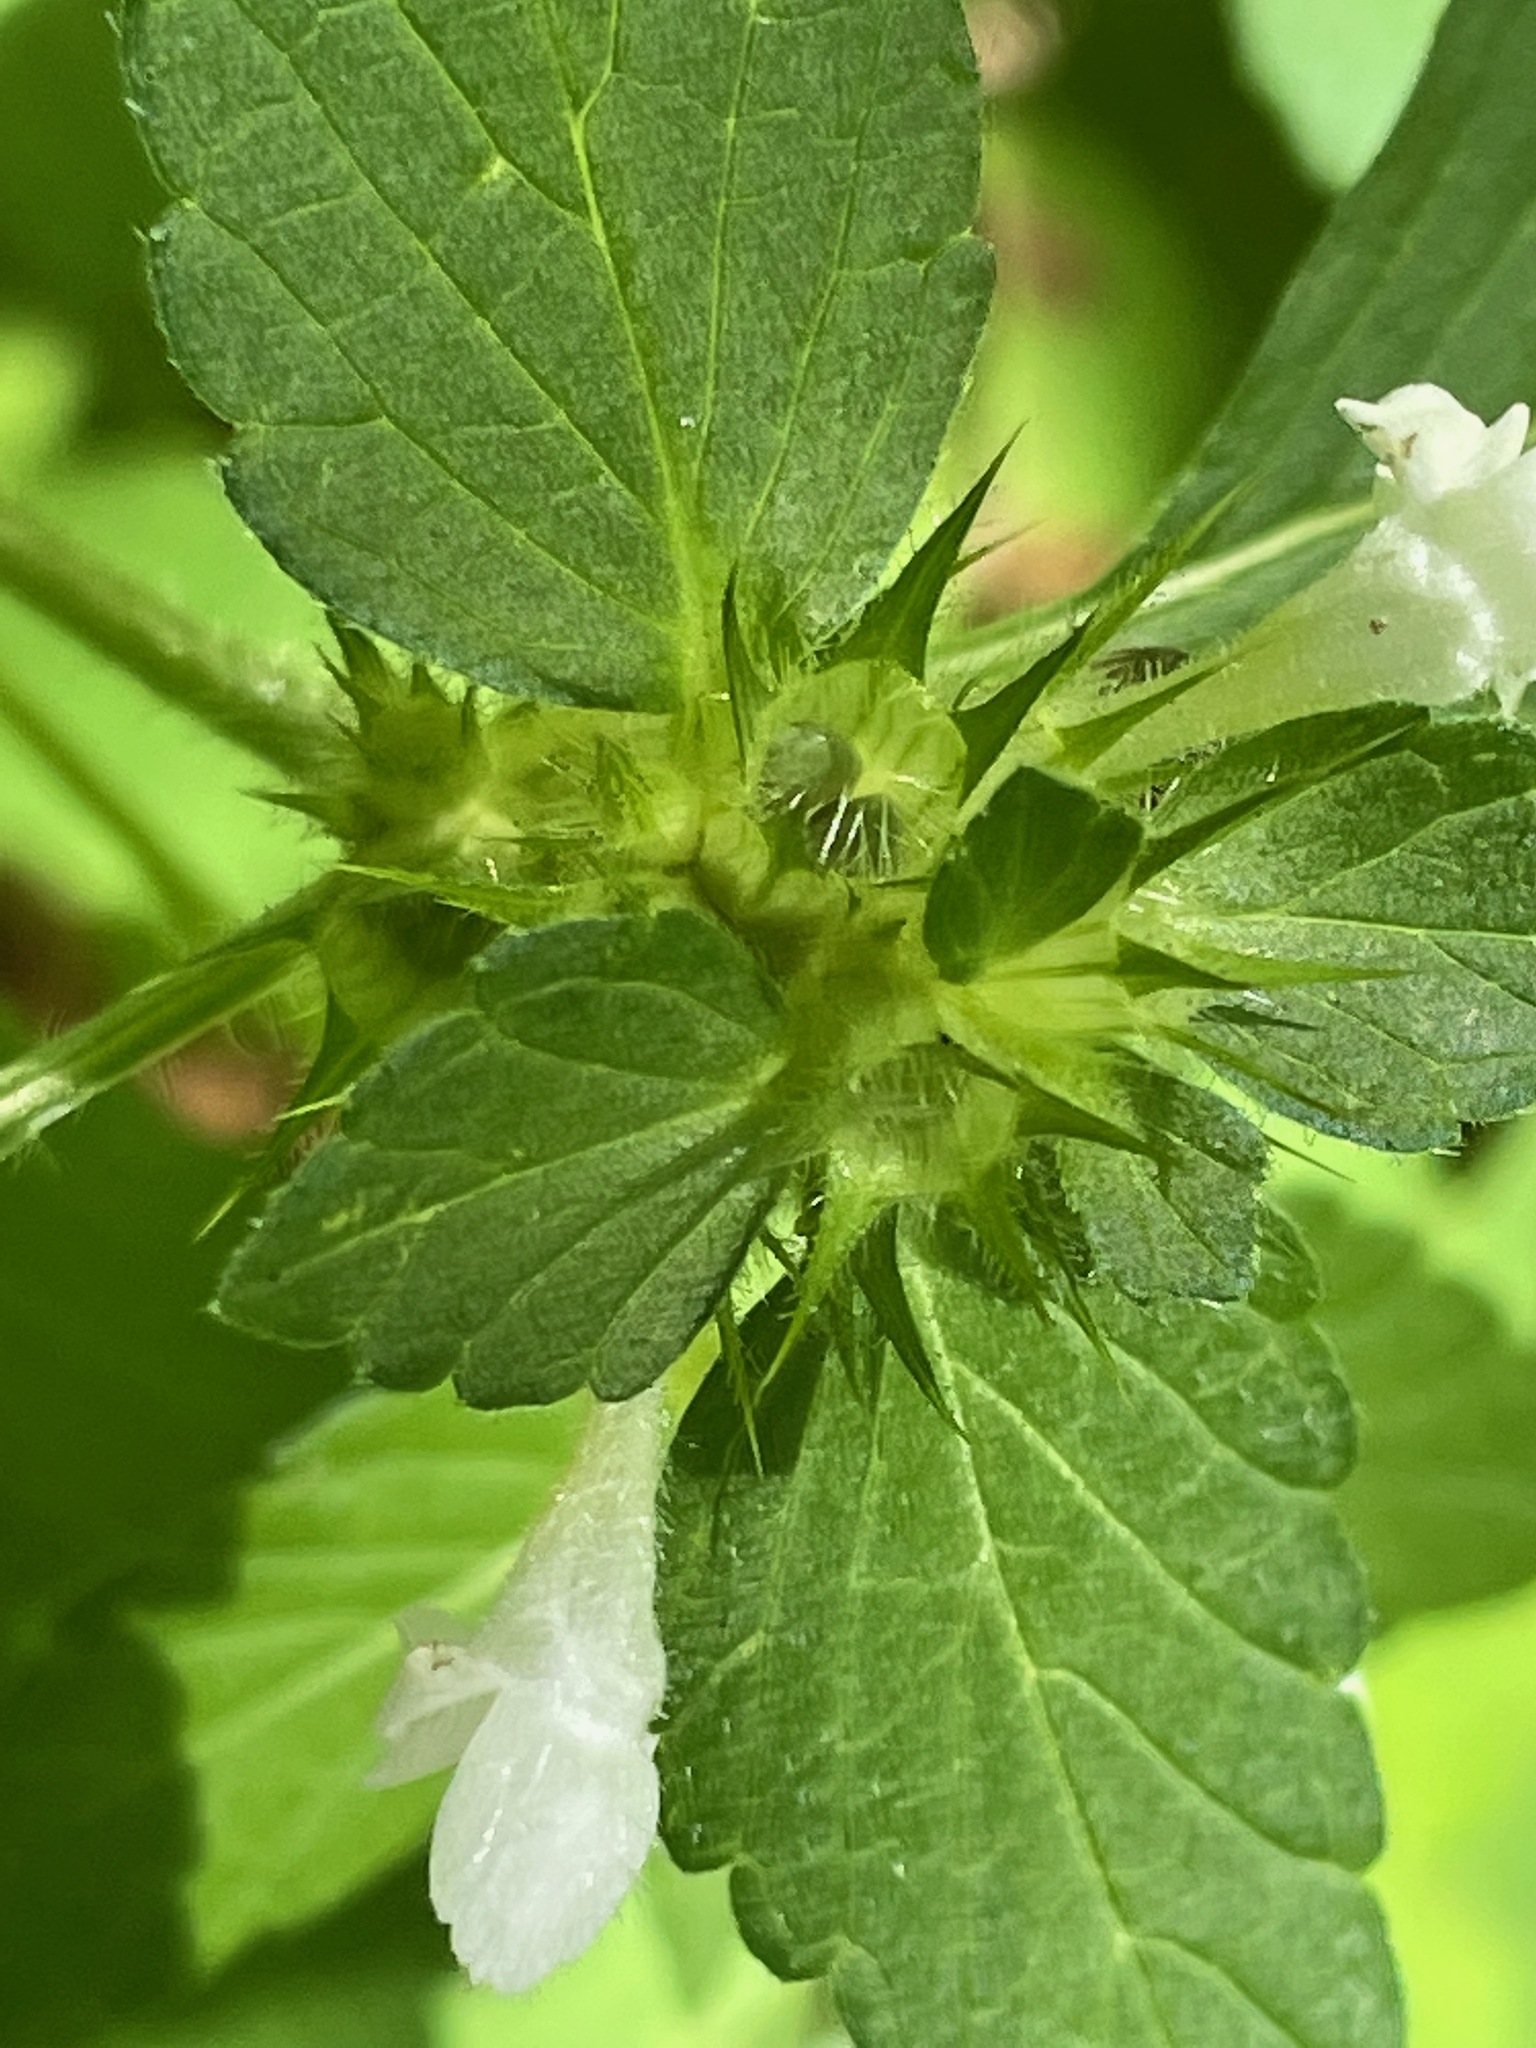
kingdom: Plantae
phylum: Tracheophyta
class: Magnoliopsida
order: Lamiales
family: Lamiaceae
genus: Galeopsis
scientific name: Galeopsis tetrahit
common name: Common hemp-nettle
